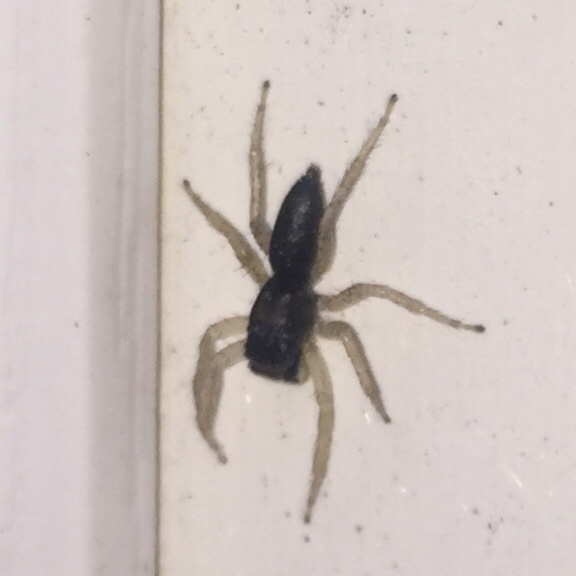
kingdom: Animalia
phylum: Arthropoda
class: Arachnida
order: Araneae
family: Salticidae
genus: Maevia
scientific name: Maevia inclemens
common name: Dimorphic jumper
